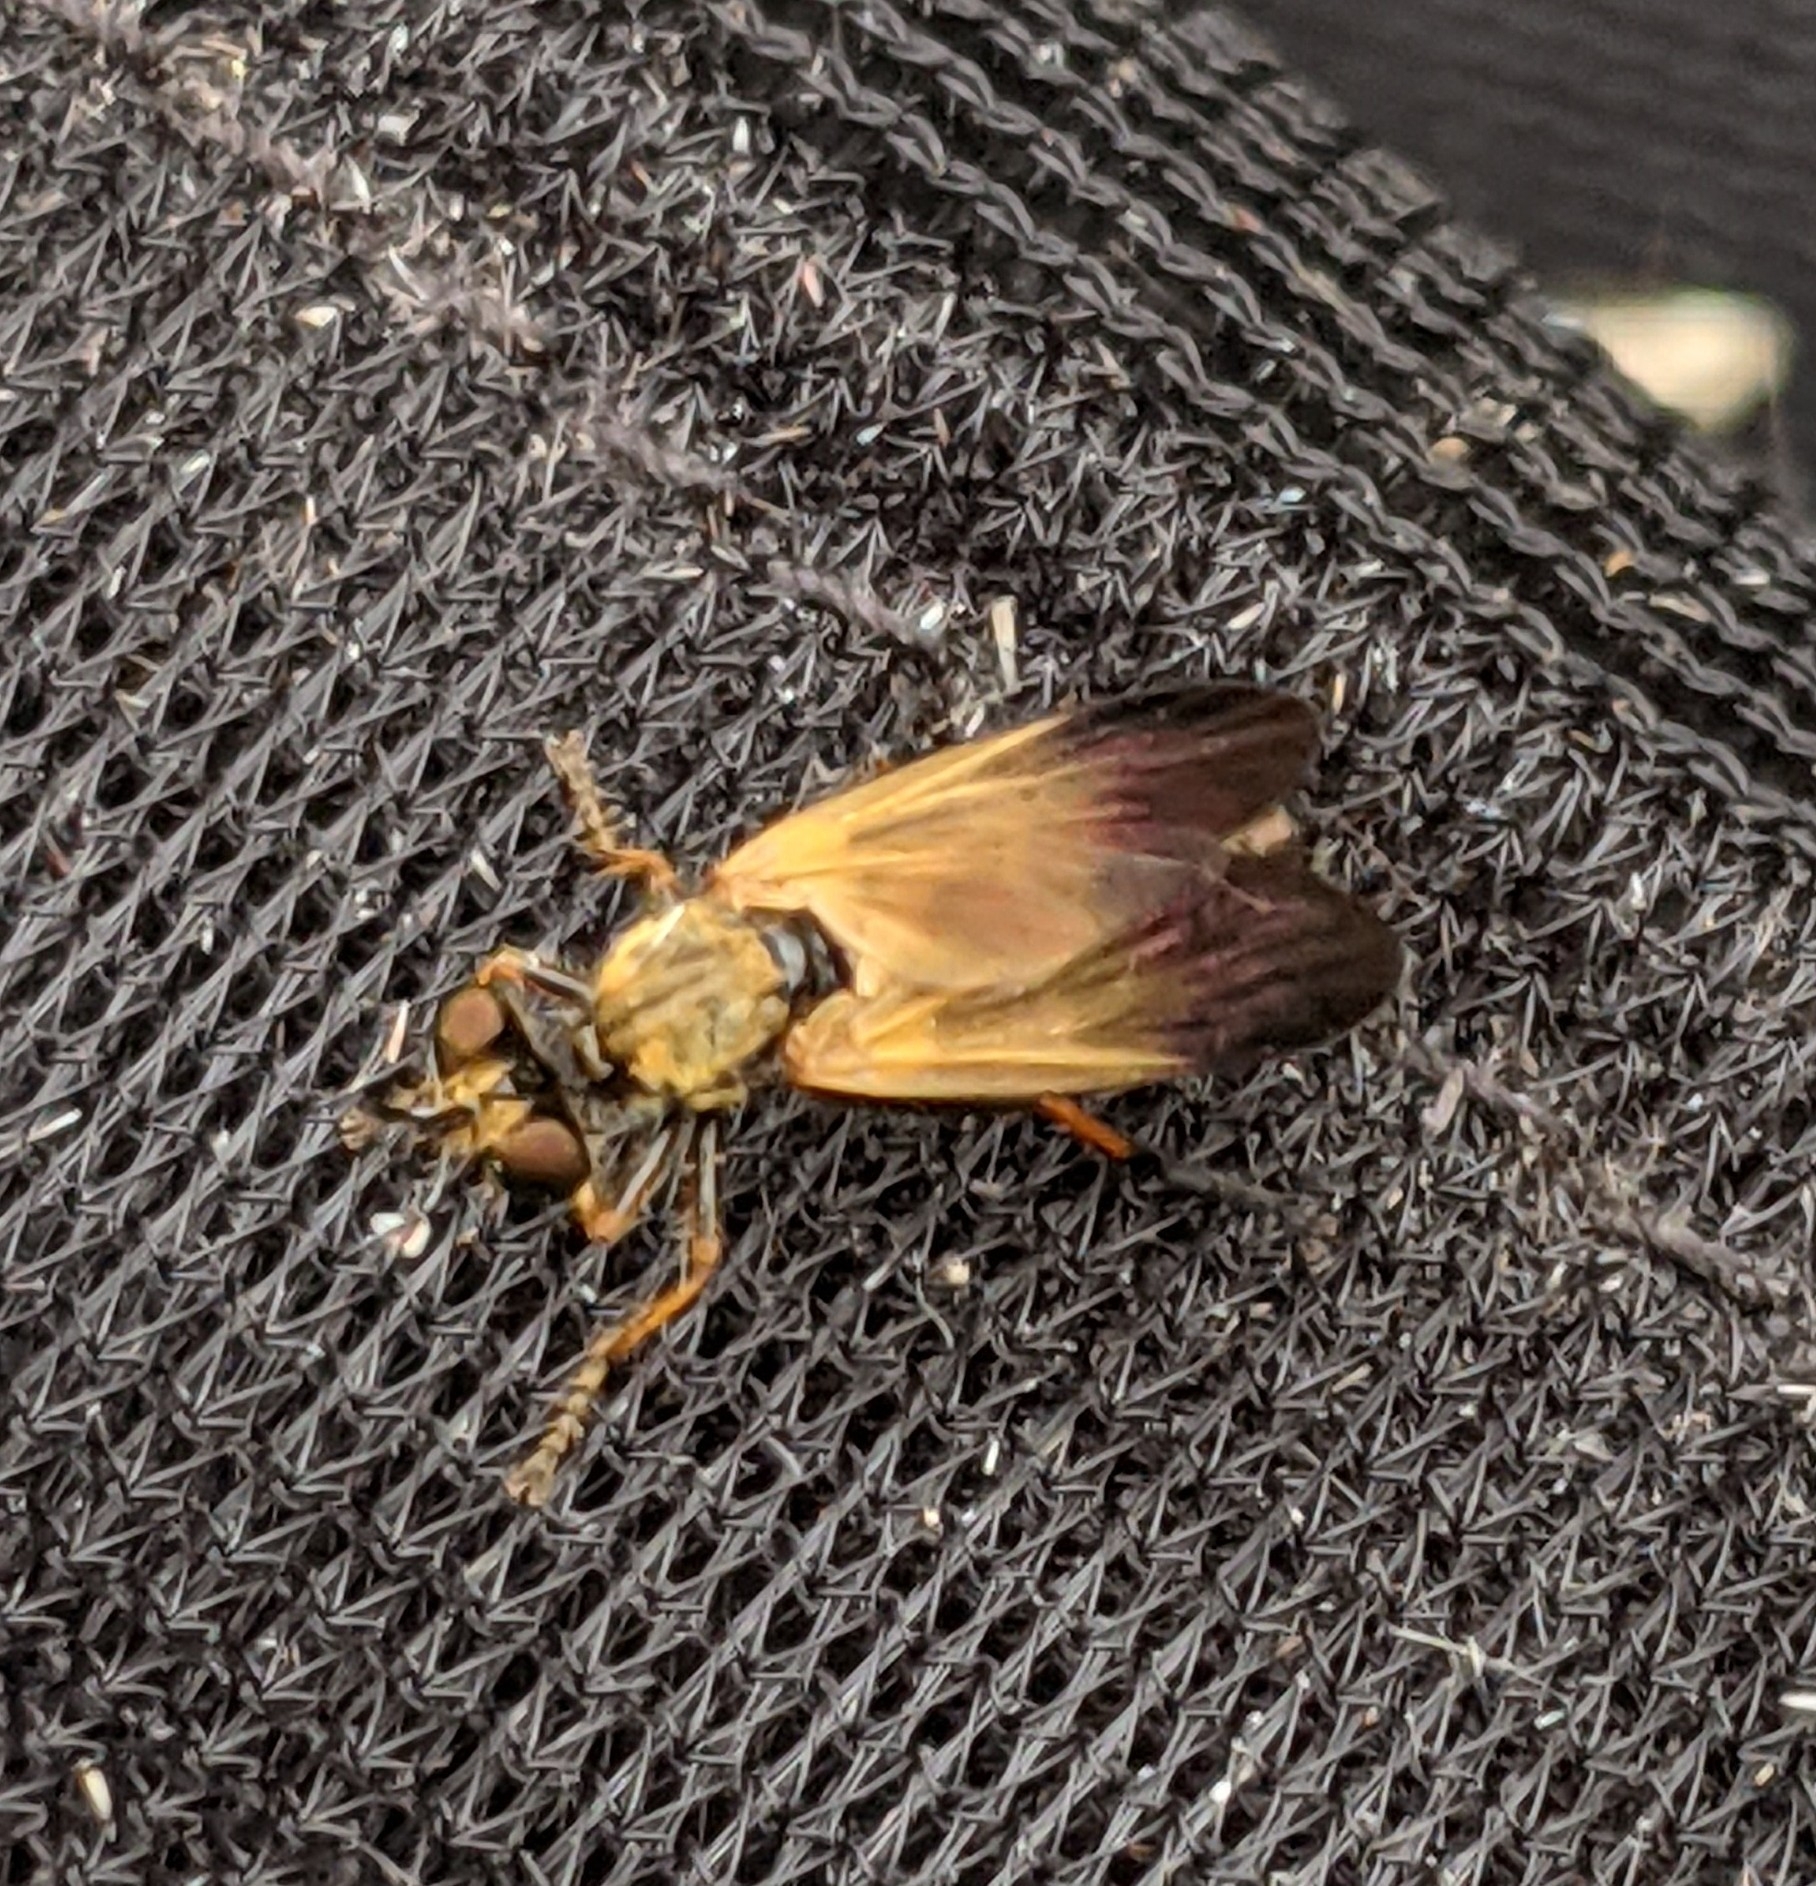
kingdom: Animalia
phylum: Arthropoda
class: Insecta
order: Diptera
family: Asilidae
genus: Eudioctria
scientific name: Eudioctria sackeni
